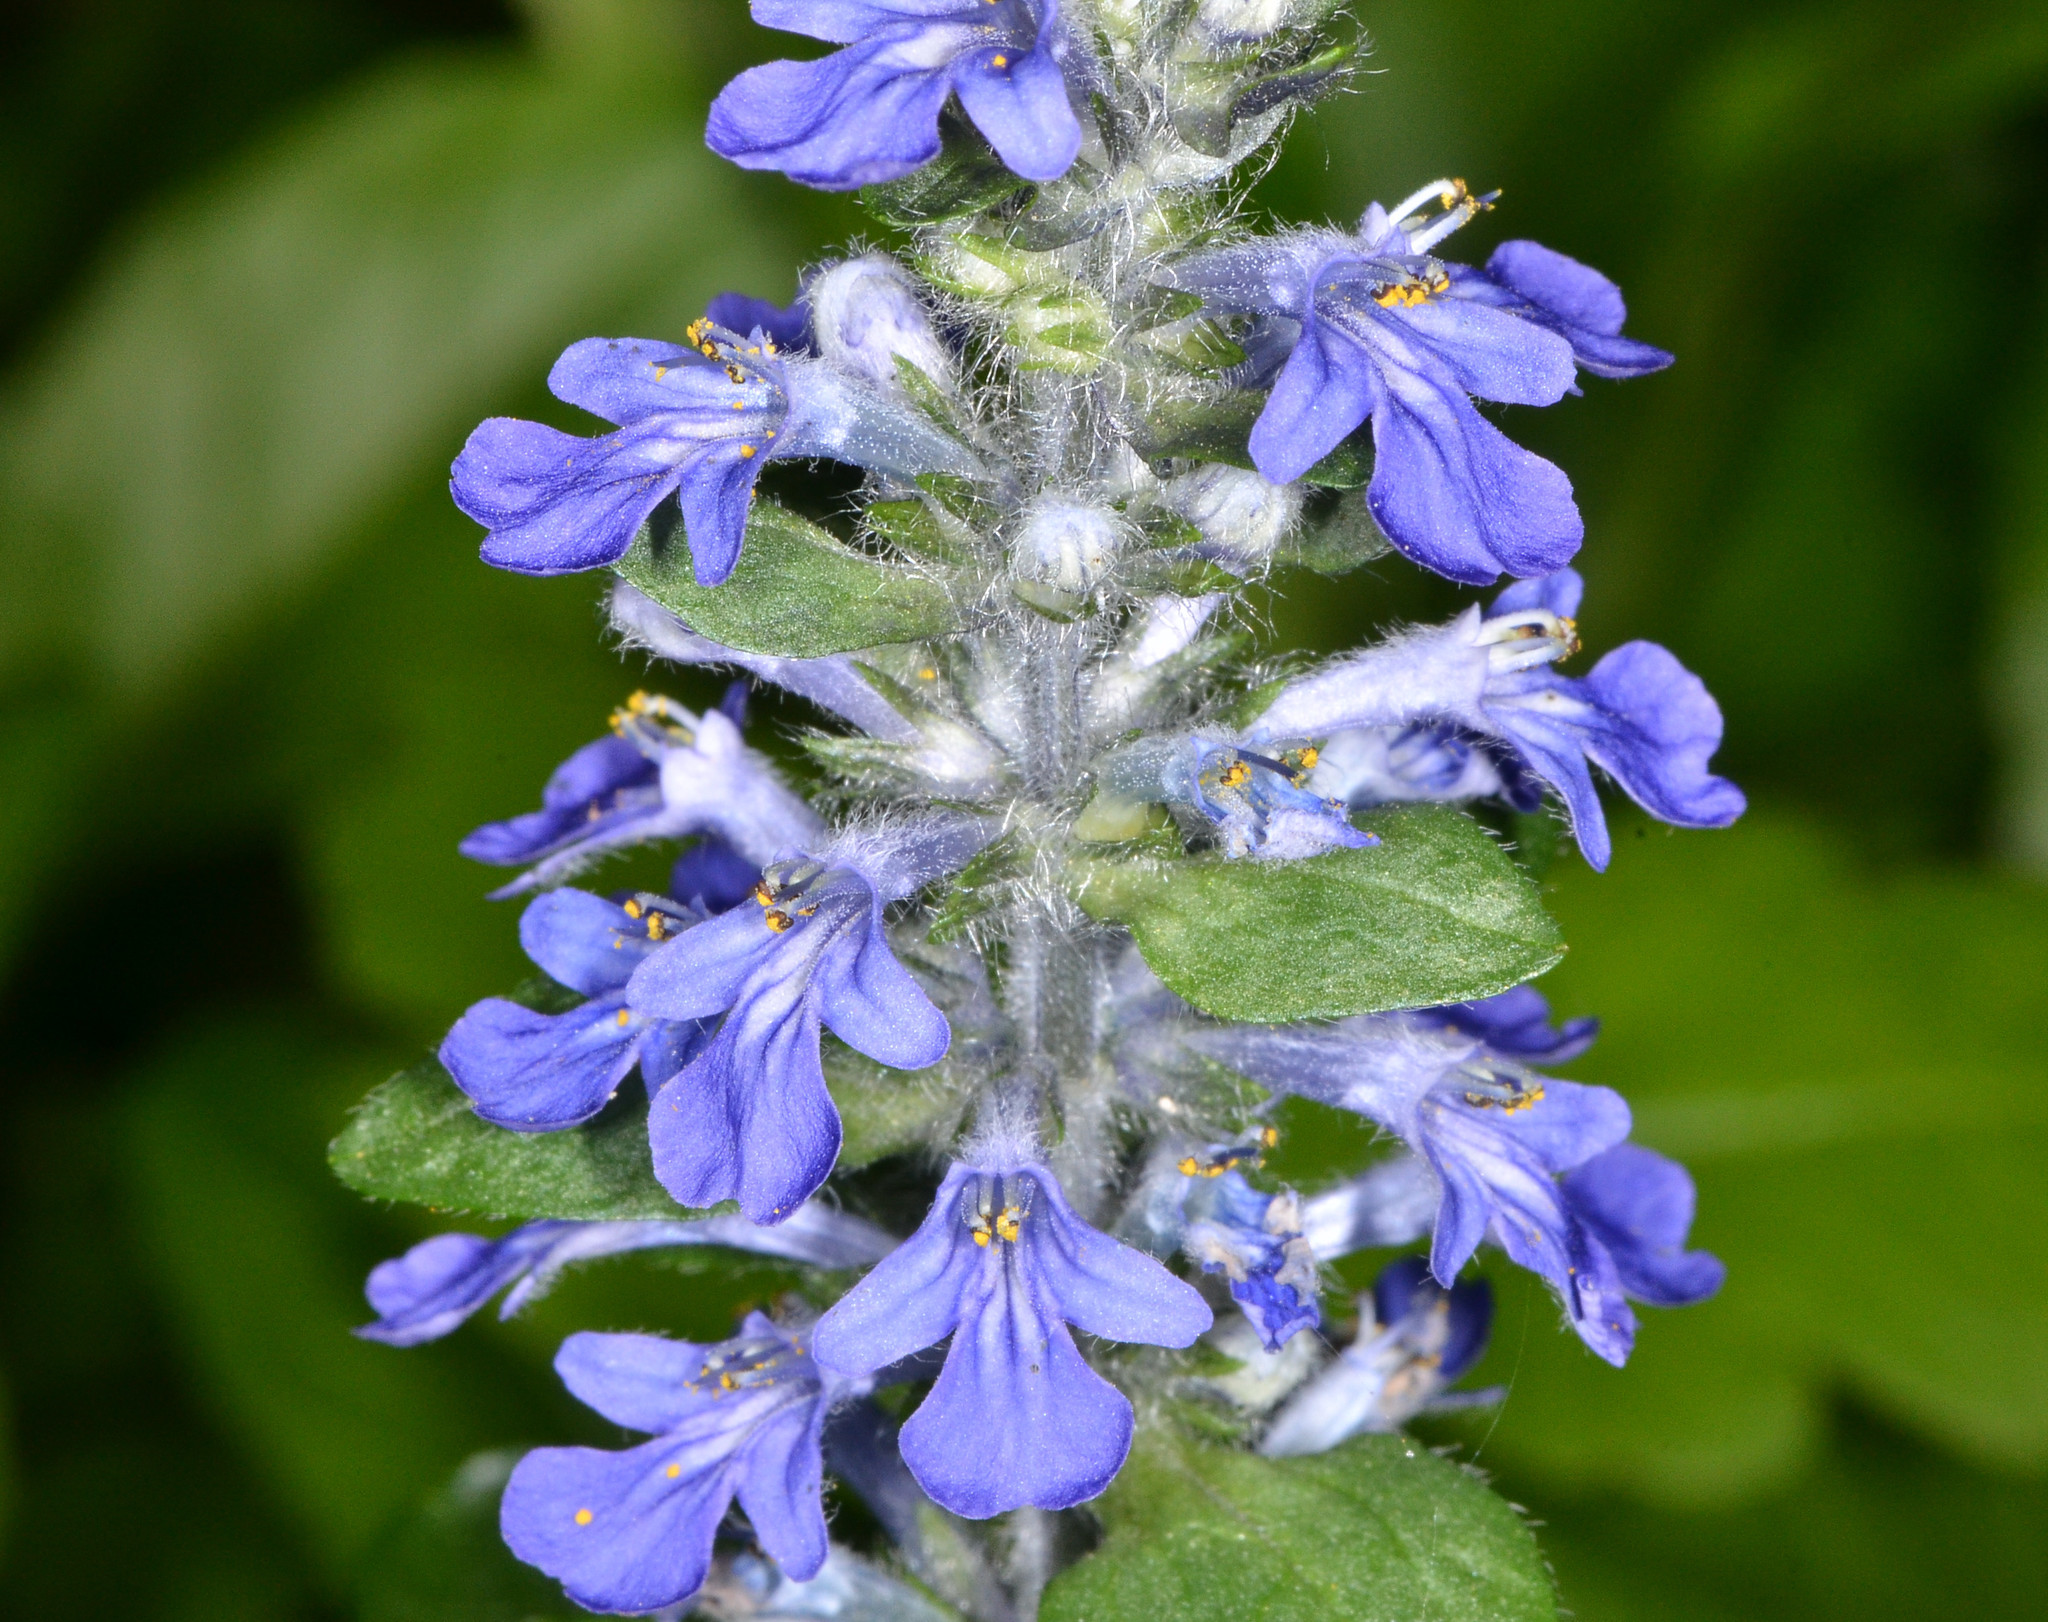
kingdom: Plantae
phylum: Tracheophyta
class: Magnoliopsida
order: Lamiales
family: Lamiaceae
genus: Ajuga
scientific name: Ajuga reptans
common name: Bugle
